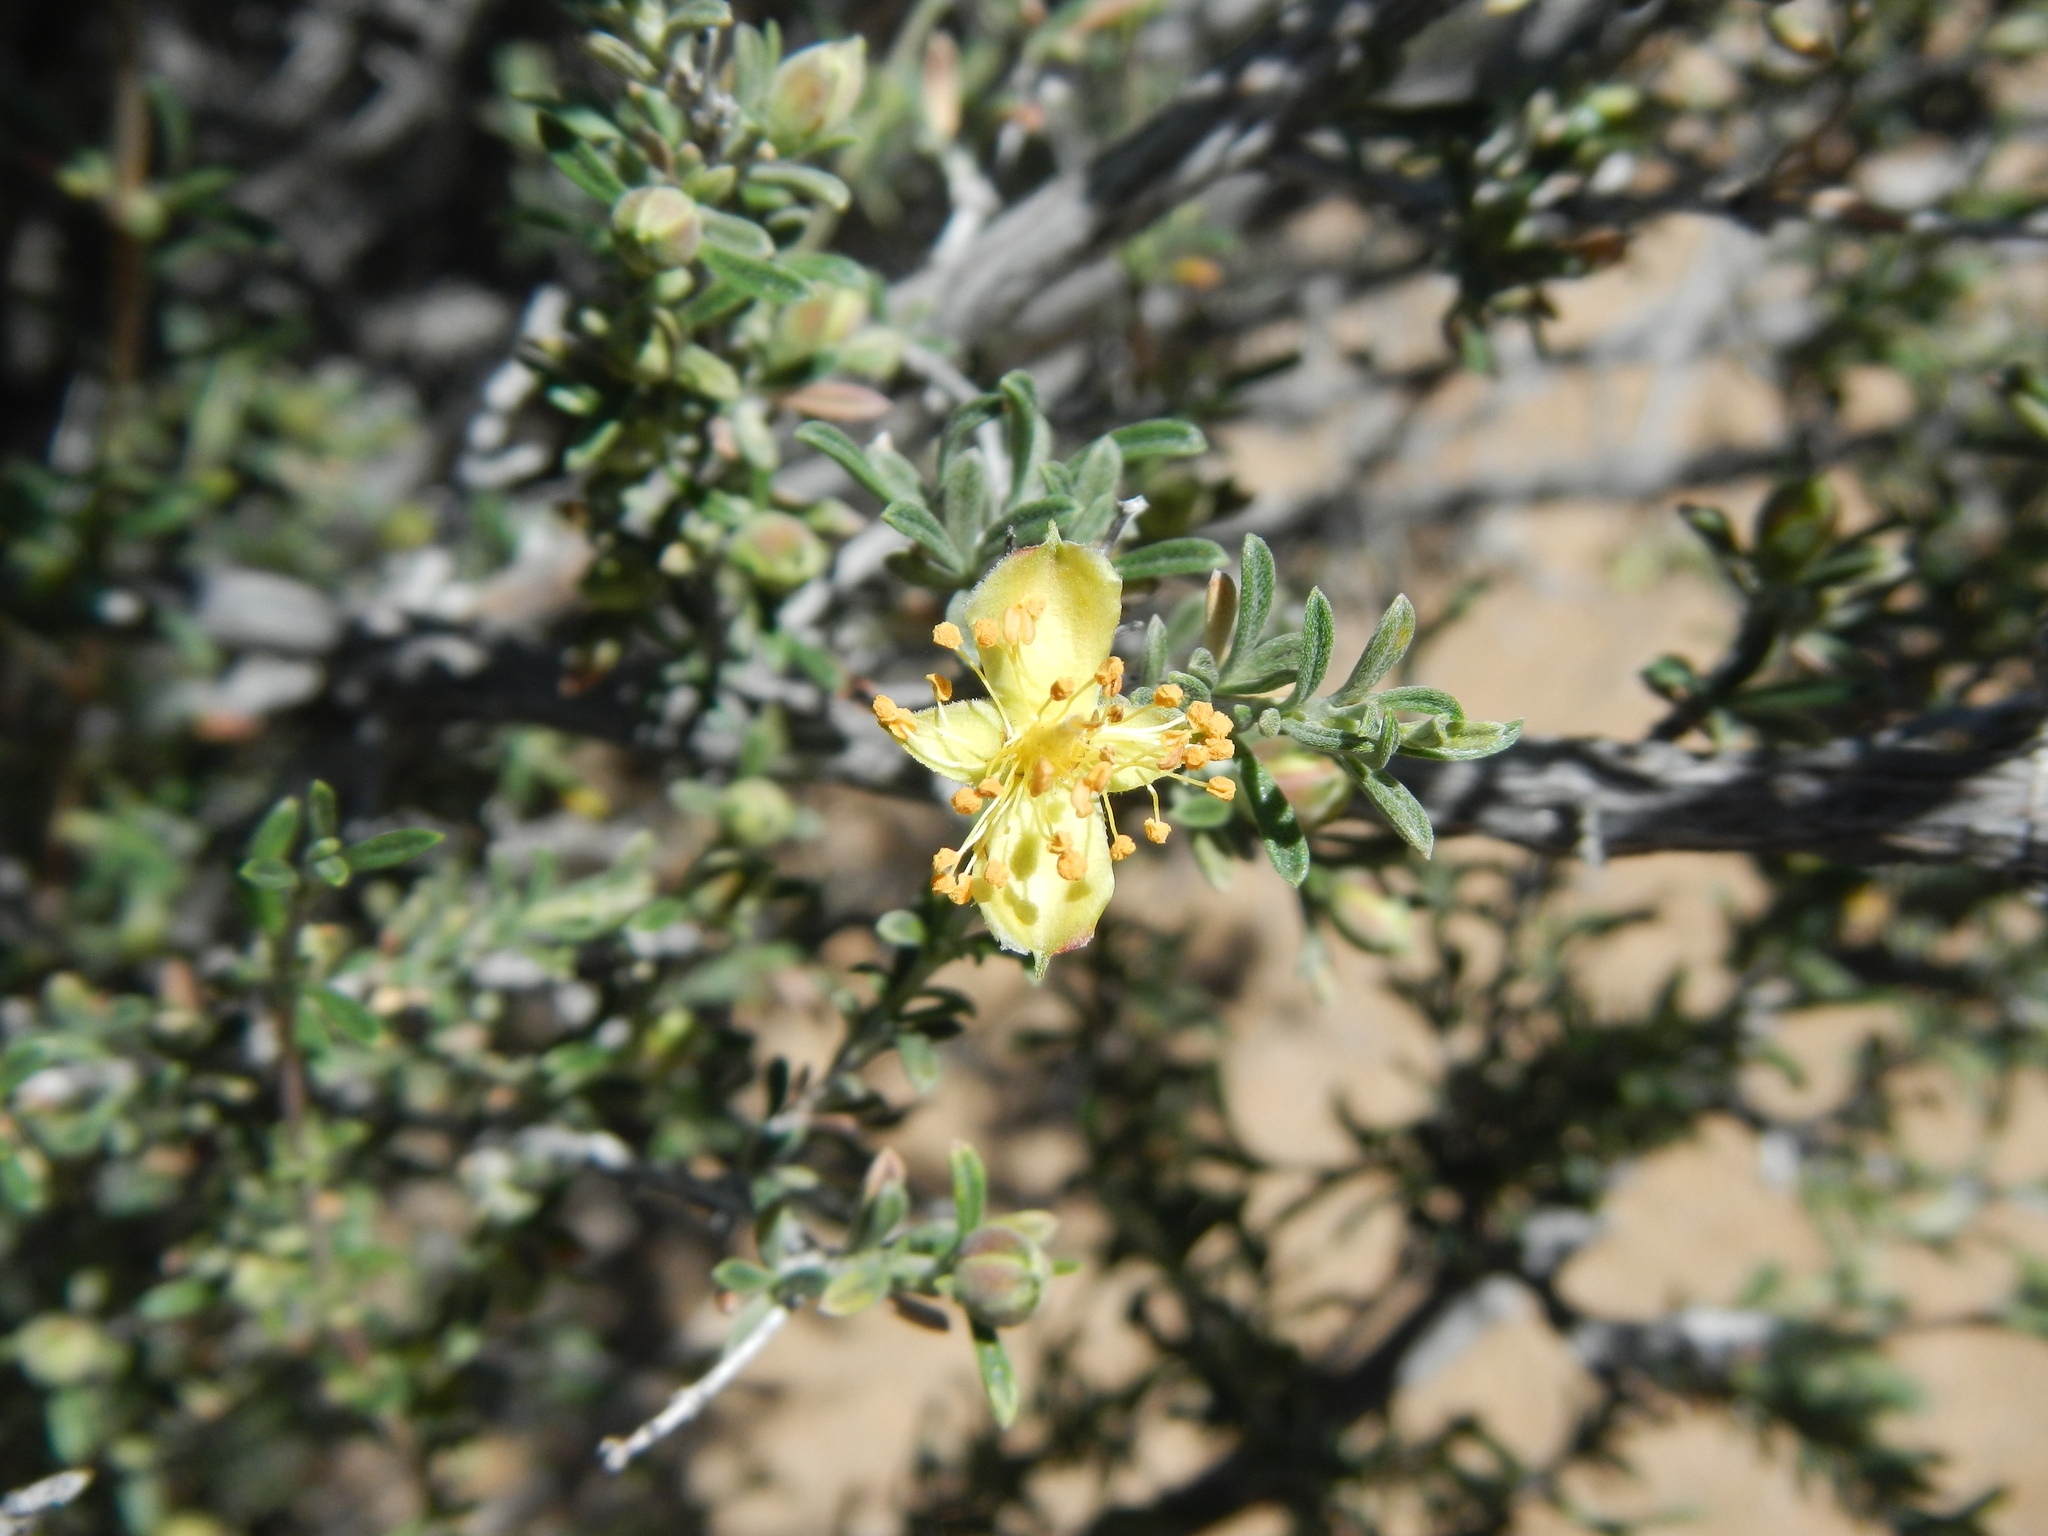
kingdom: Plantae
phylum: Tracheophyta
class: Magnoliopsida
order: Rosales
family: Rosaceae
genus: Coleogyne
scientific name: Coleogyne ramosissima
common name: Blackbrush
